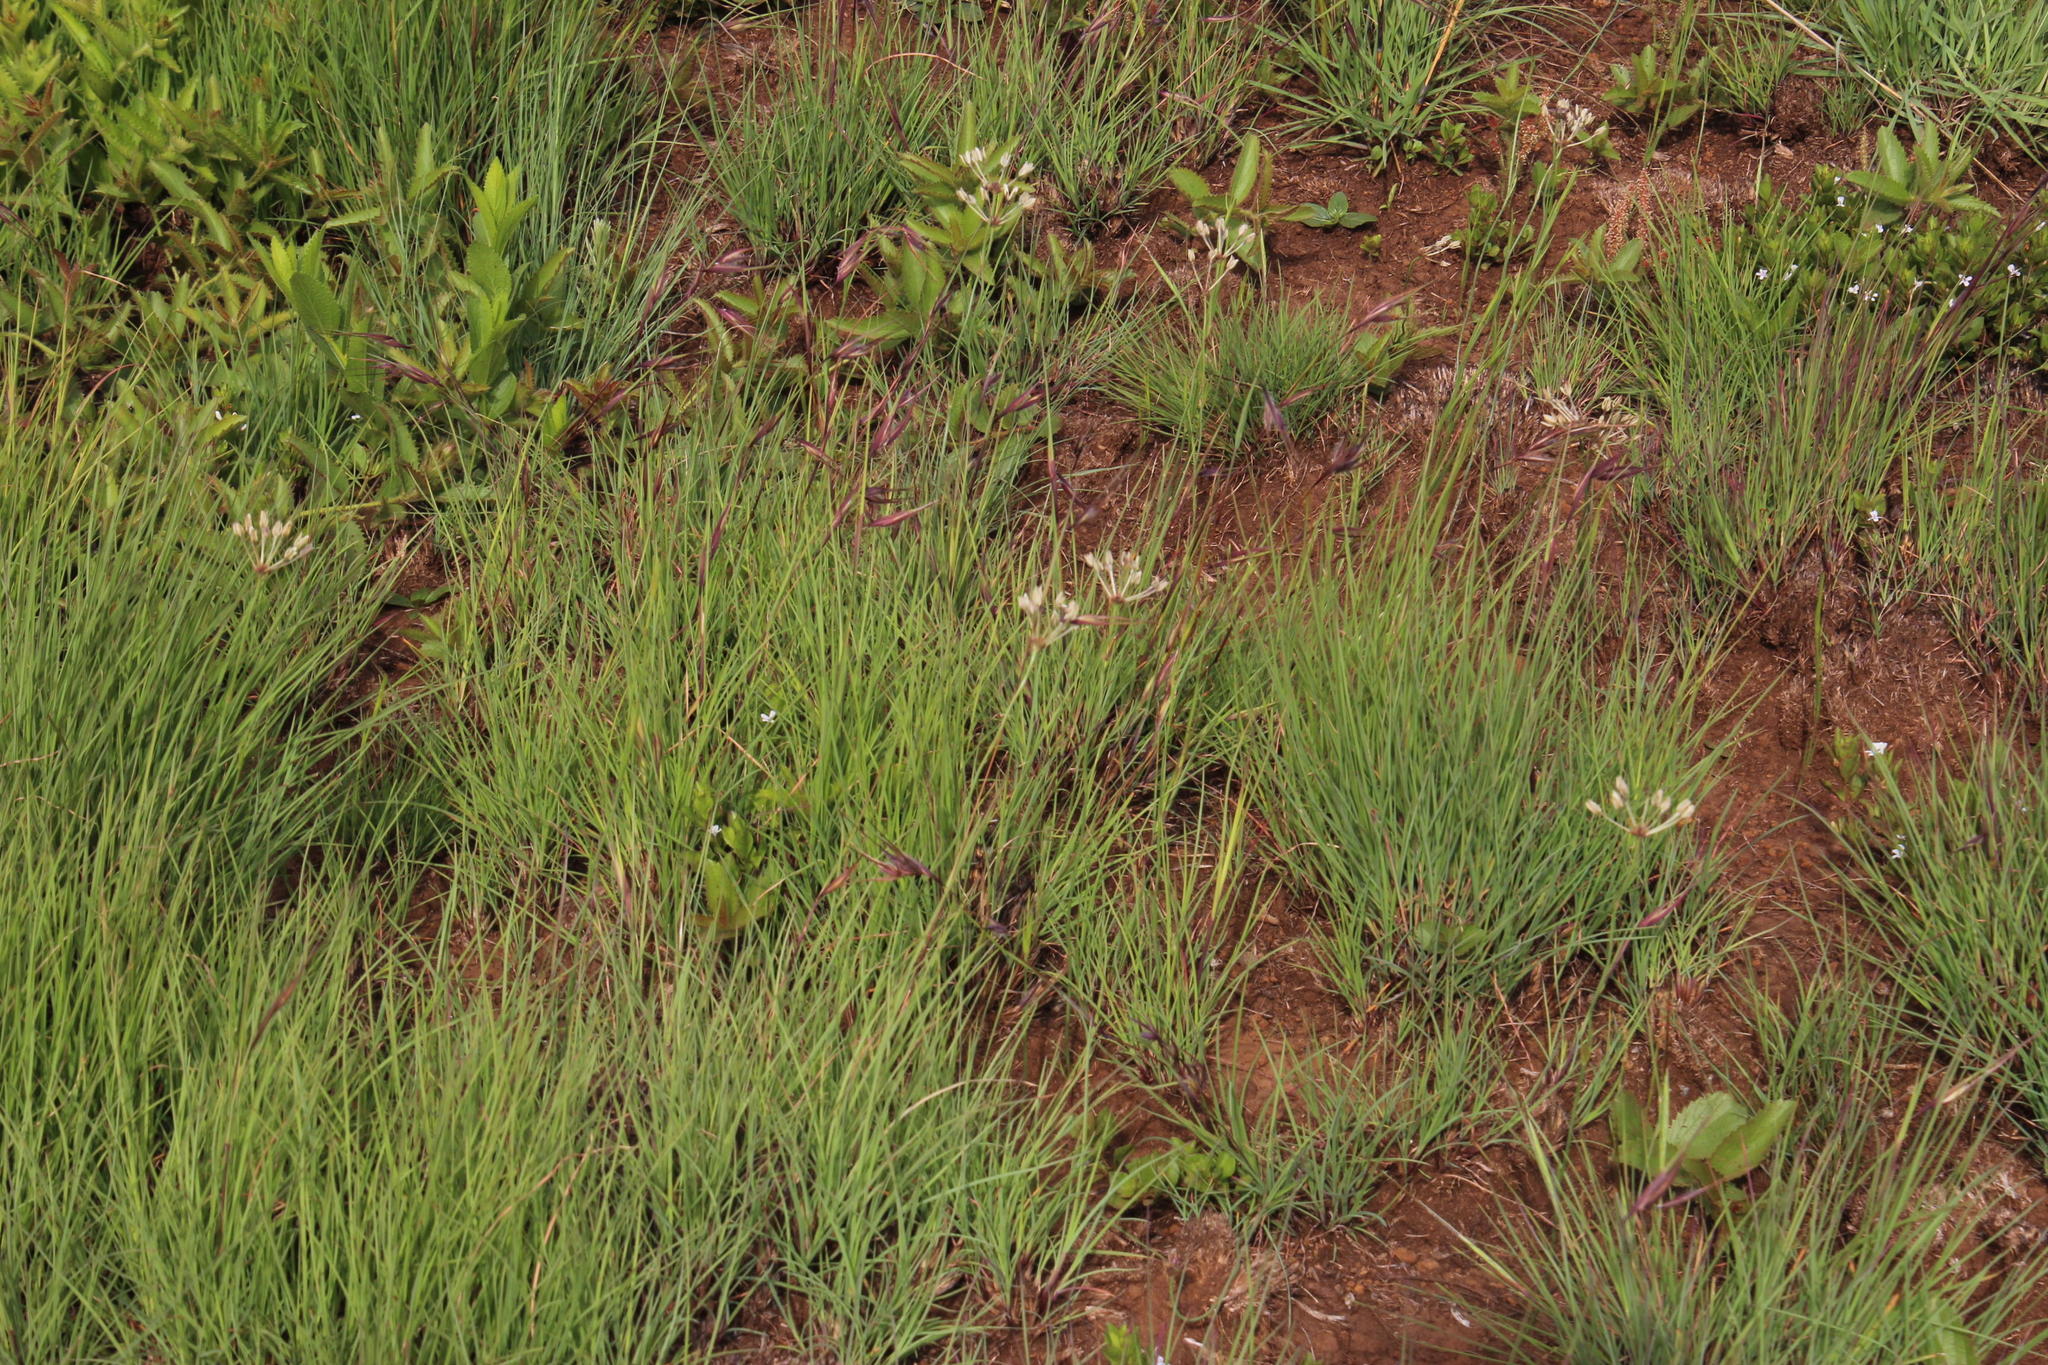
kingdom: Plantae
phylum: Tracheophyta
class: Liliopsida
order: Poales
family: Poaceae
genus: Themeda
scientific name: Themeda triandra
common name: Kangaroo grass
